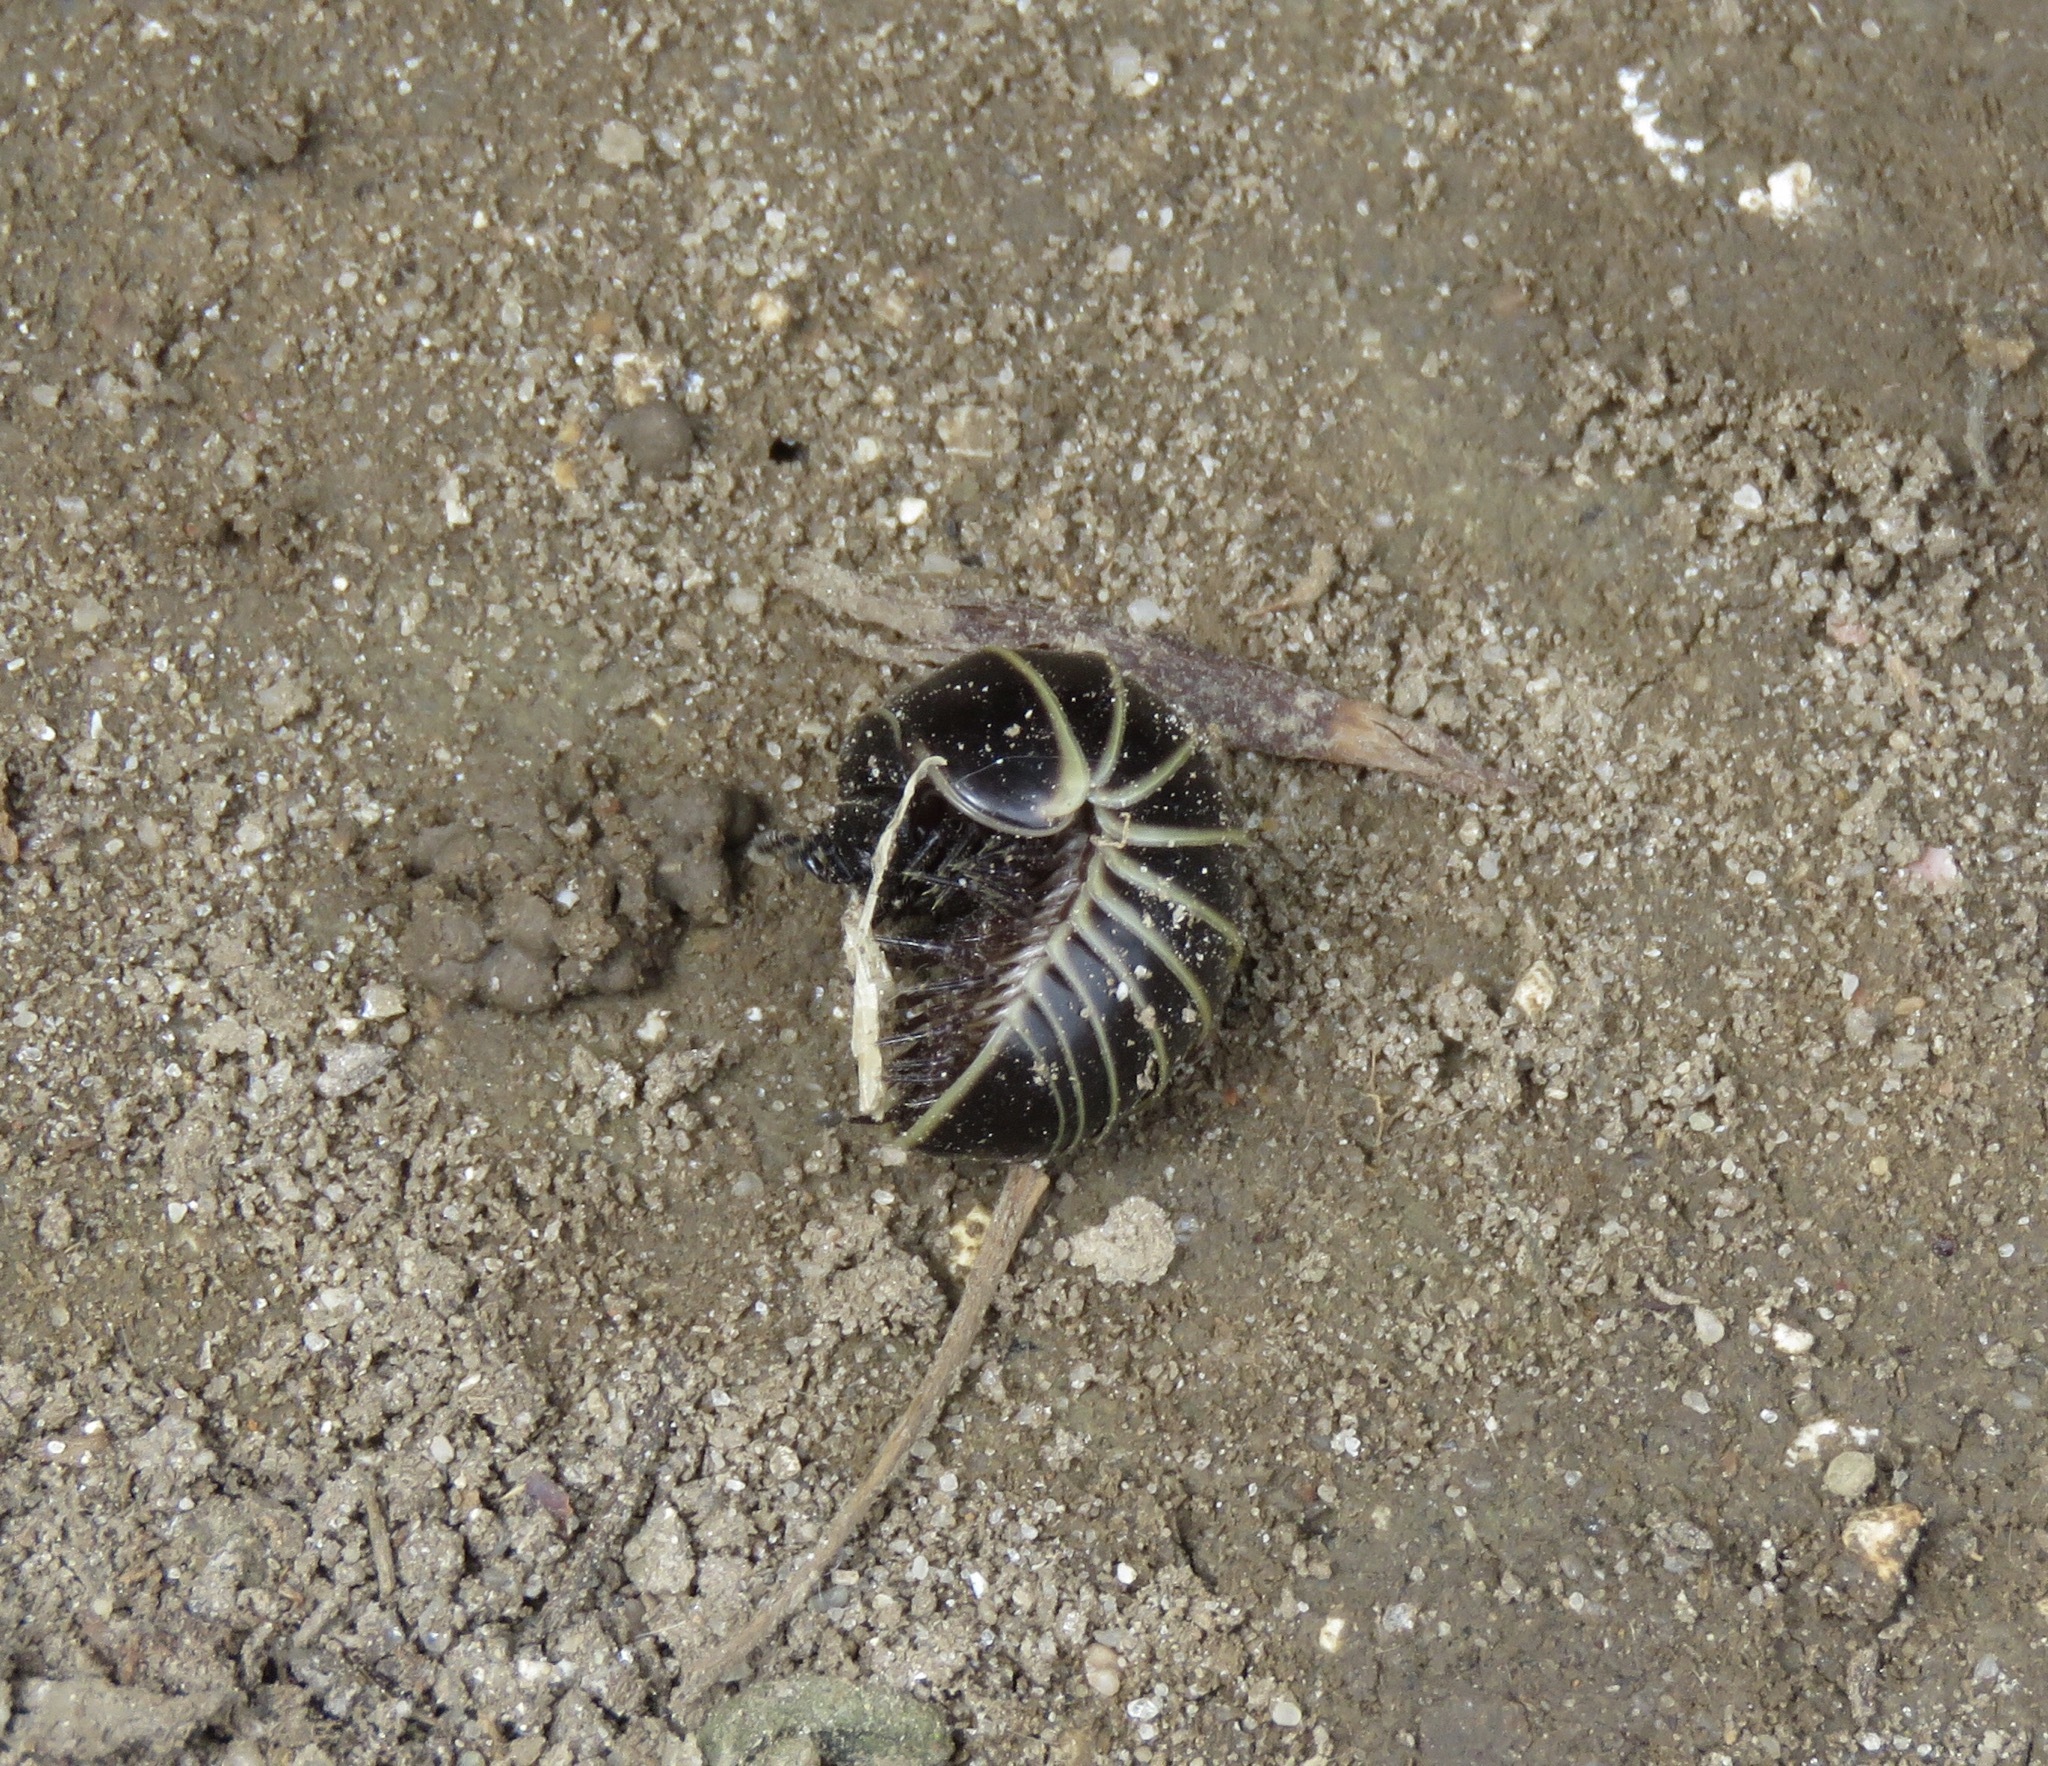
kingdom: Animalia
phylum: Arthropoda
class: Diplopoda
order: Glomerida
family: Glomeridae
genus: Glomeris
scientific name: Glomeris marginata
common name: Bordered pill millipede
